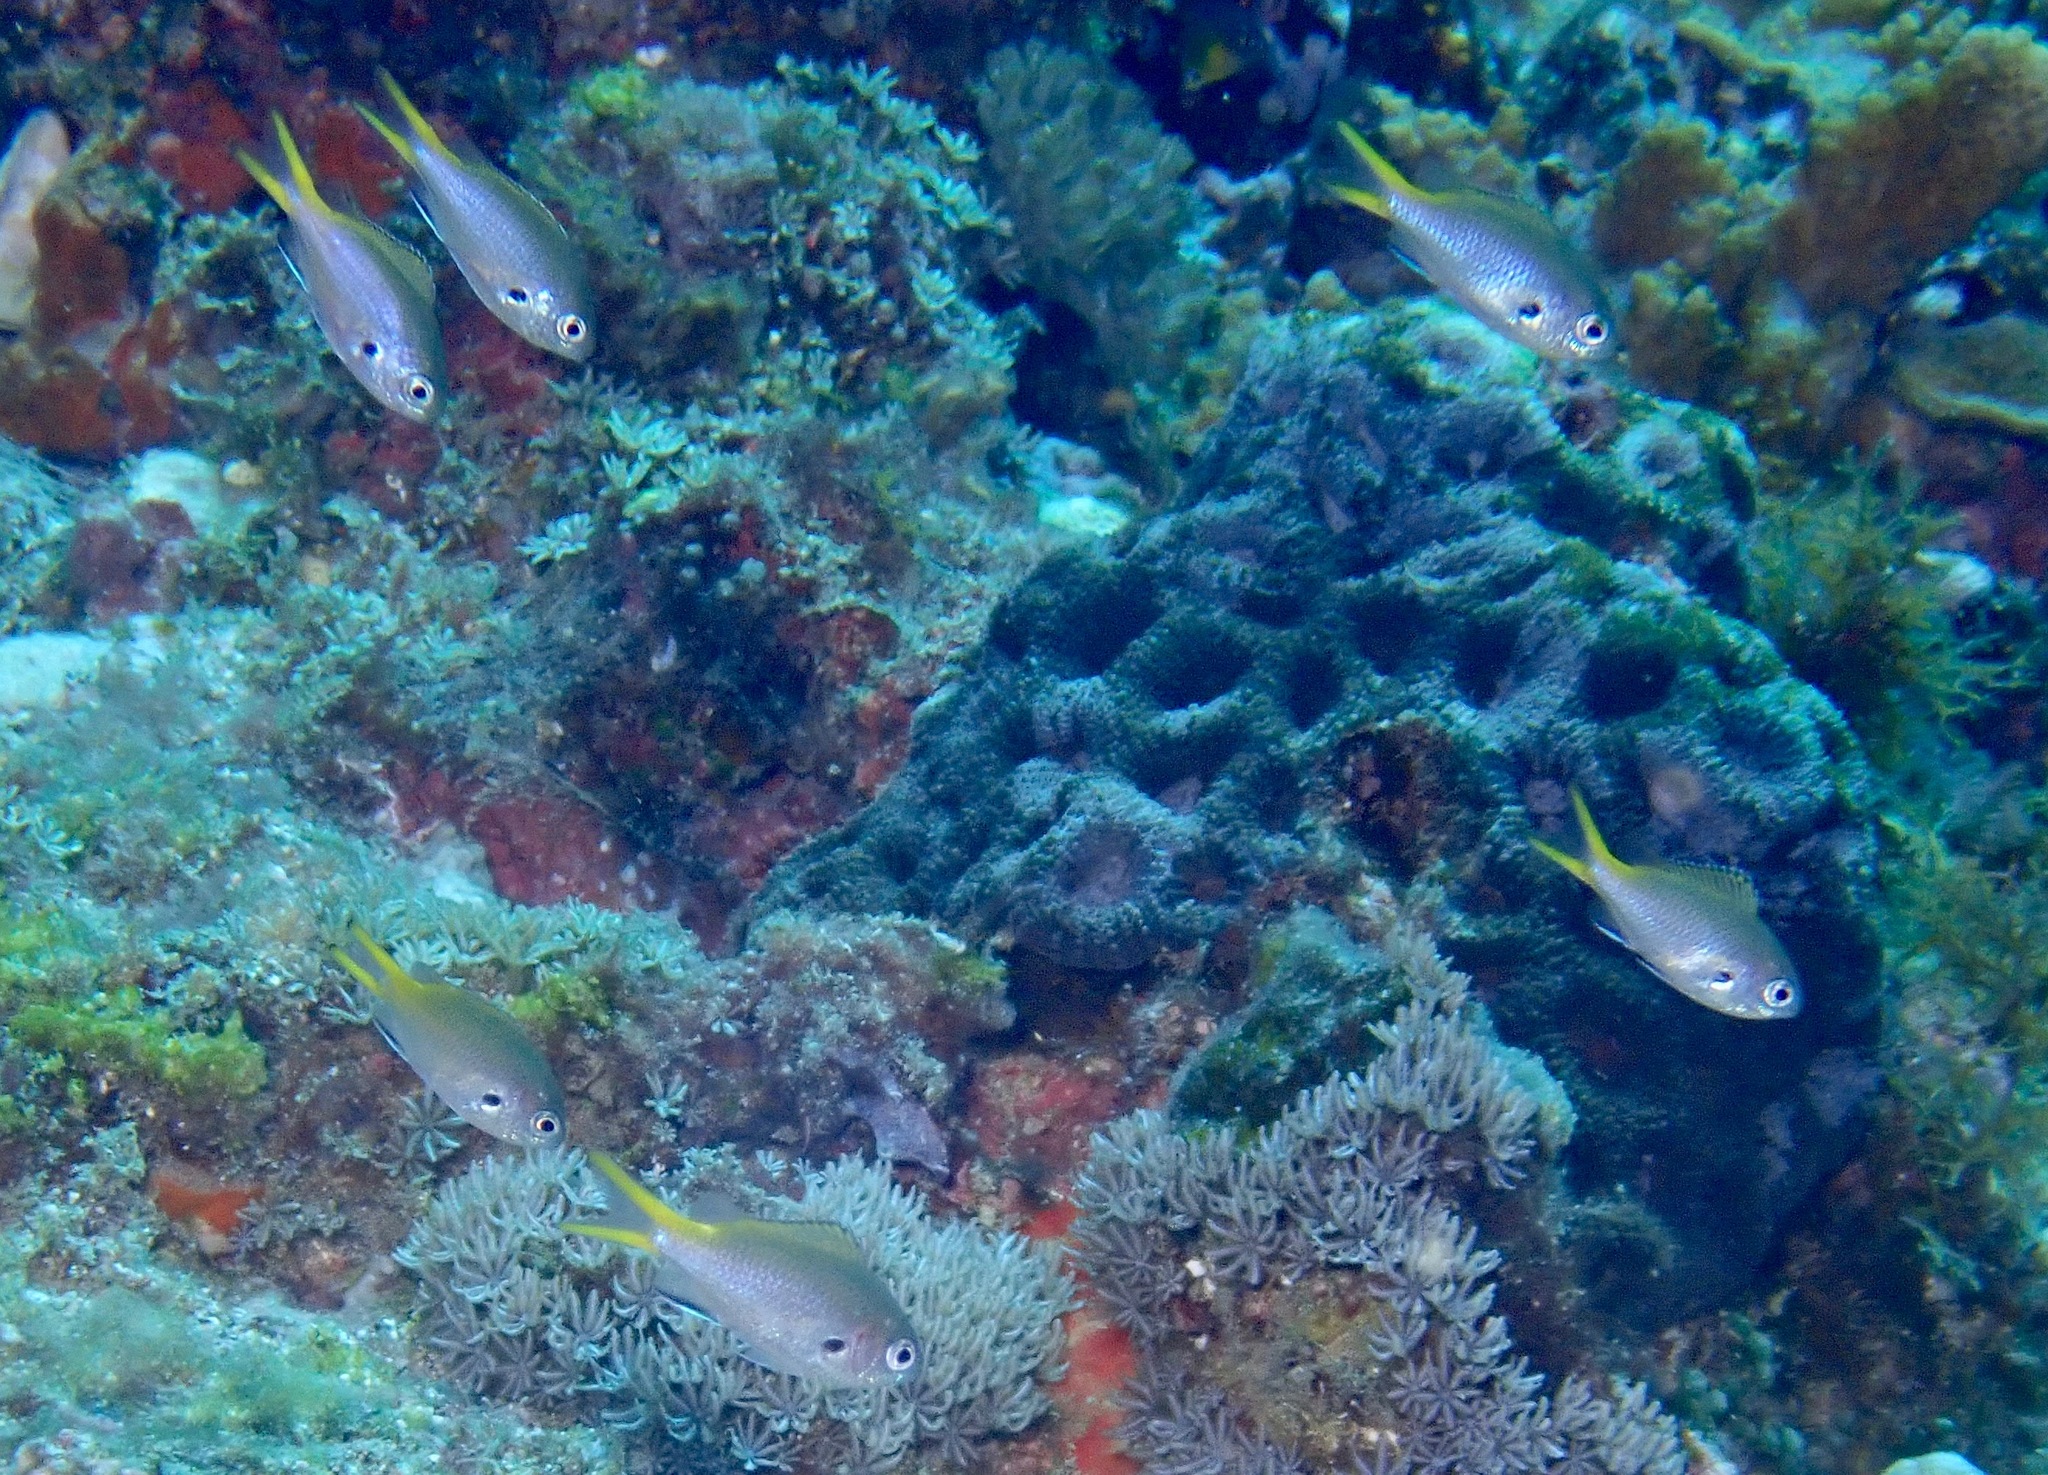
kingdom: Animalia
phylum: Chordata
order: Perciformes
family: Pomacentridae
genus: Chromis
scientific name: Chromis kennensis
